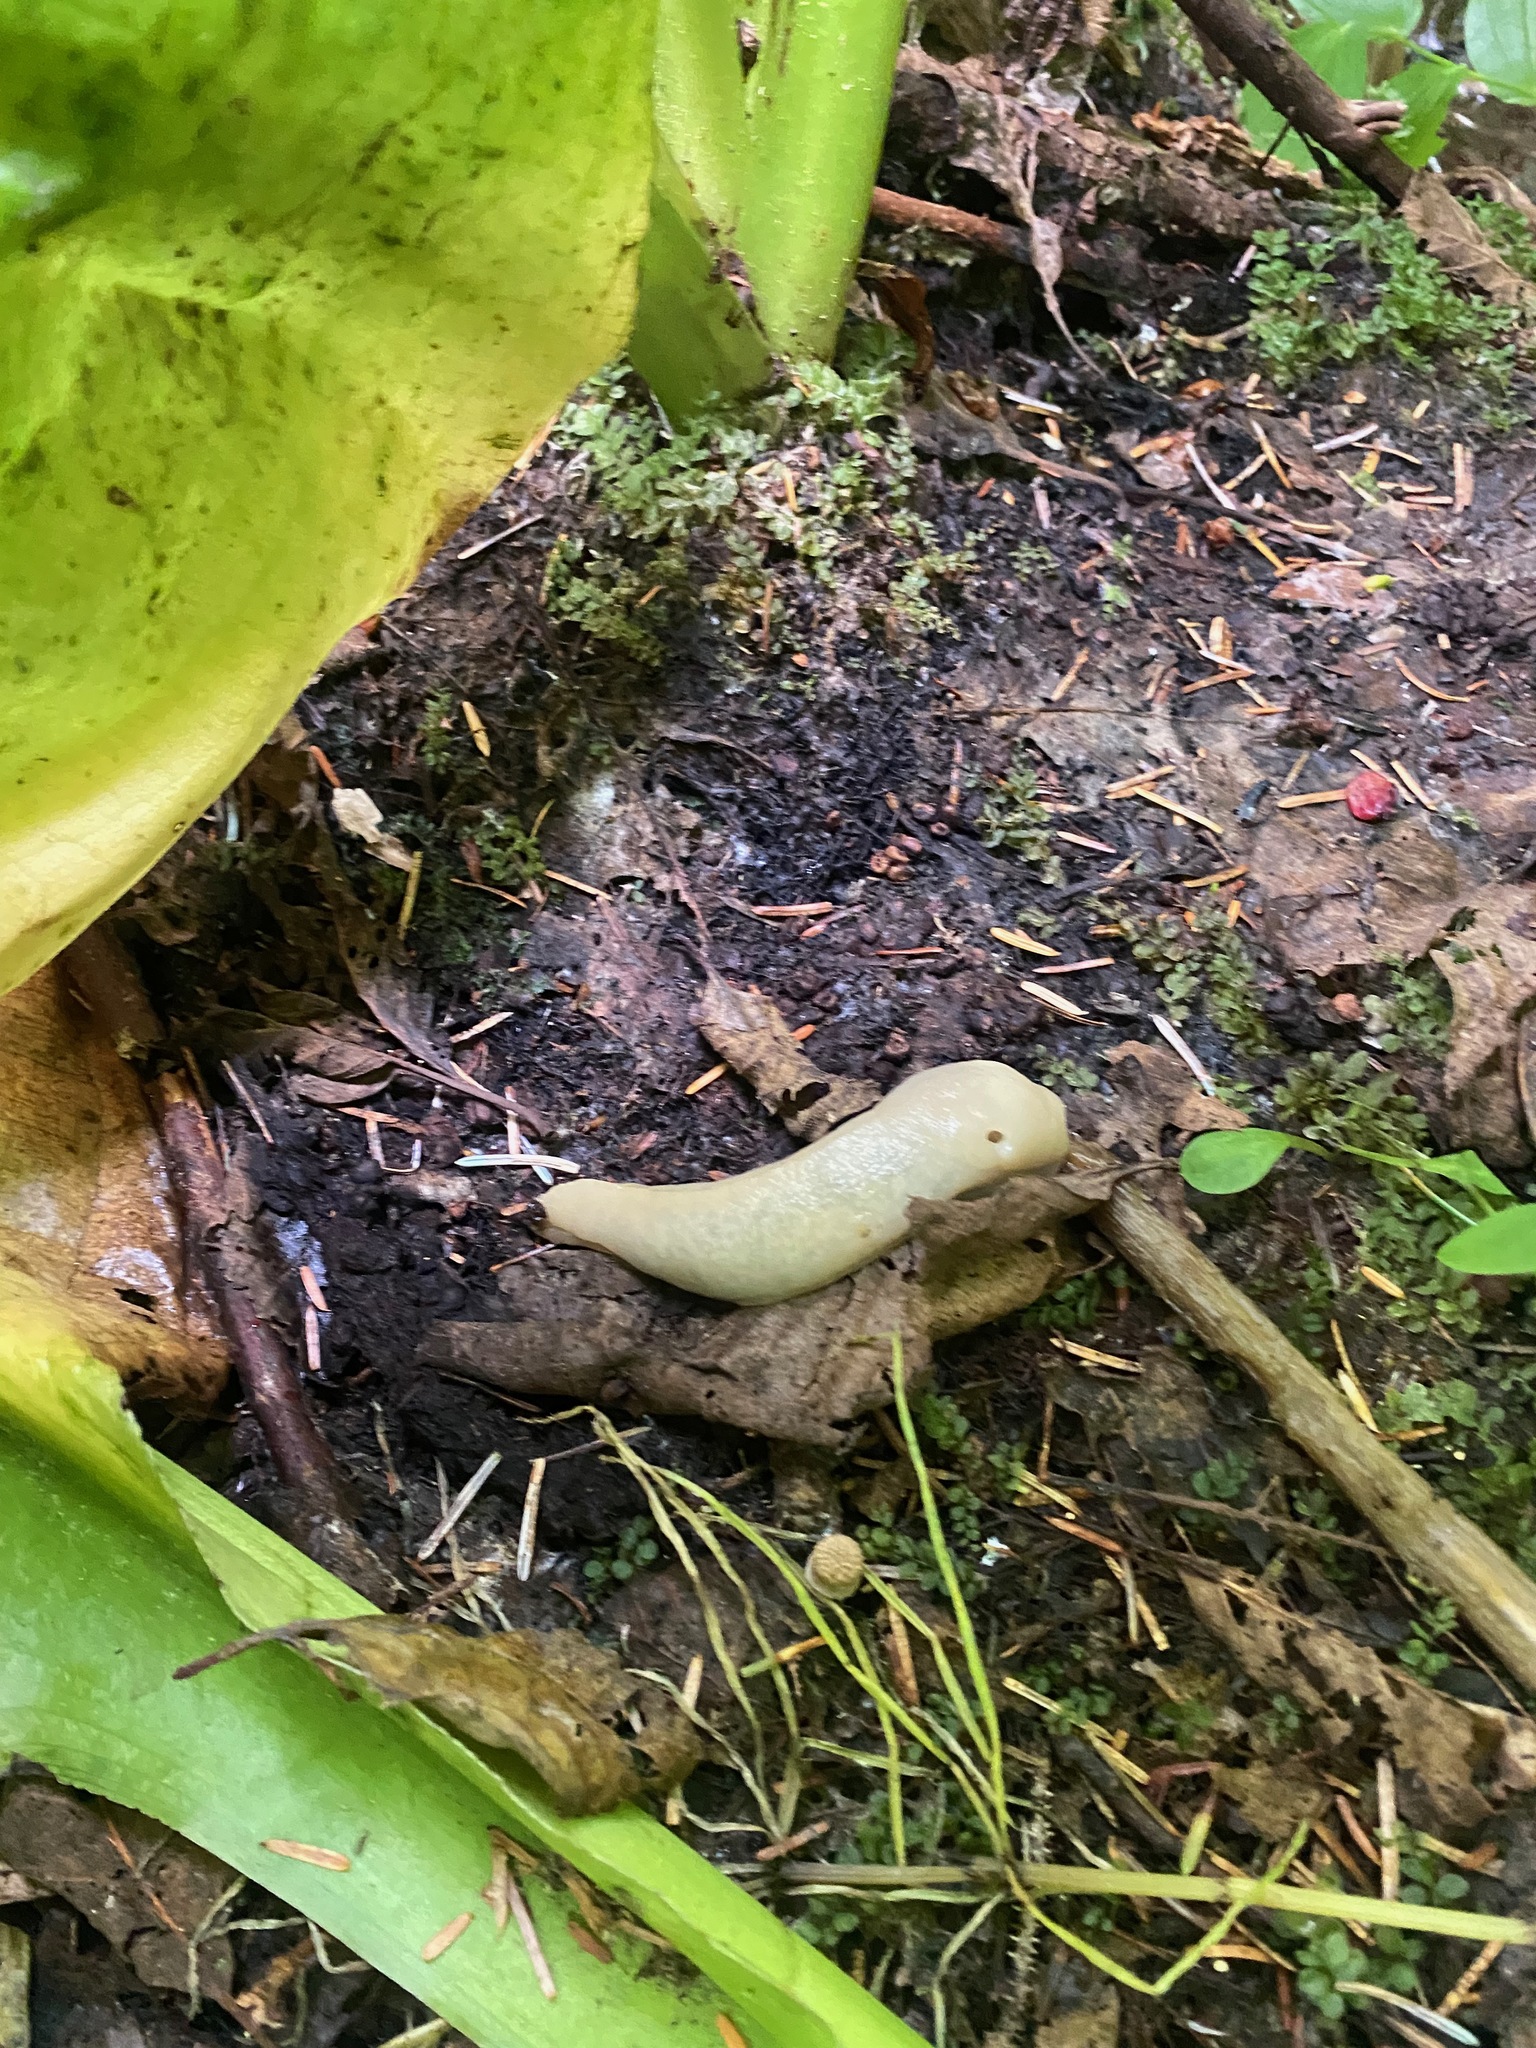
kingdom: Animalia
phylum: Mollusca
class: Gastropoda
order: Stylommatophora
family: Ariolimacidae
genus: Ariolimax
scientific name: Ariolimax columbianus
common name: Pacific banana slug
